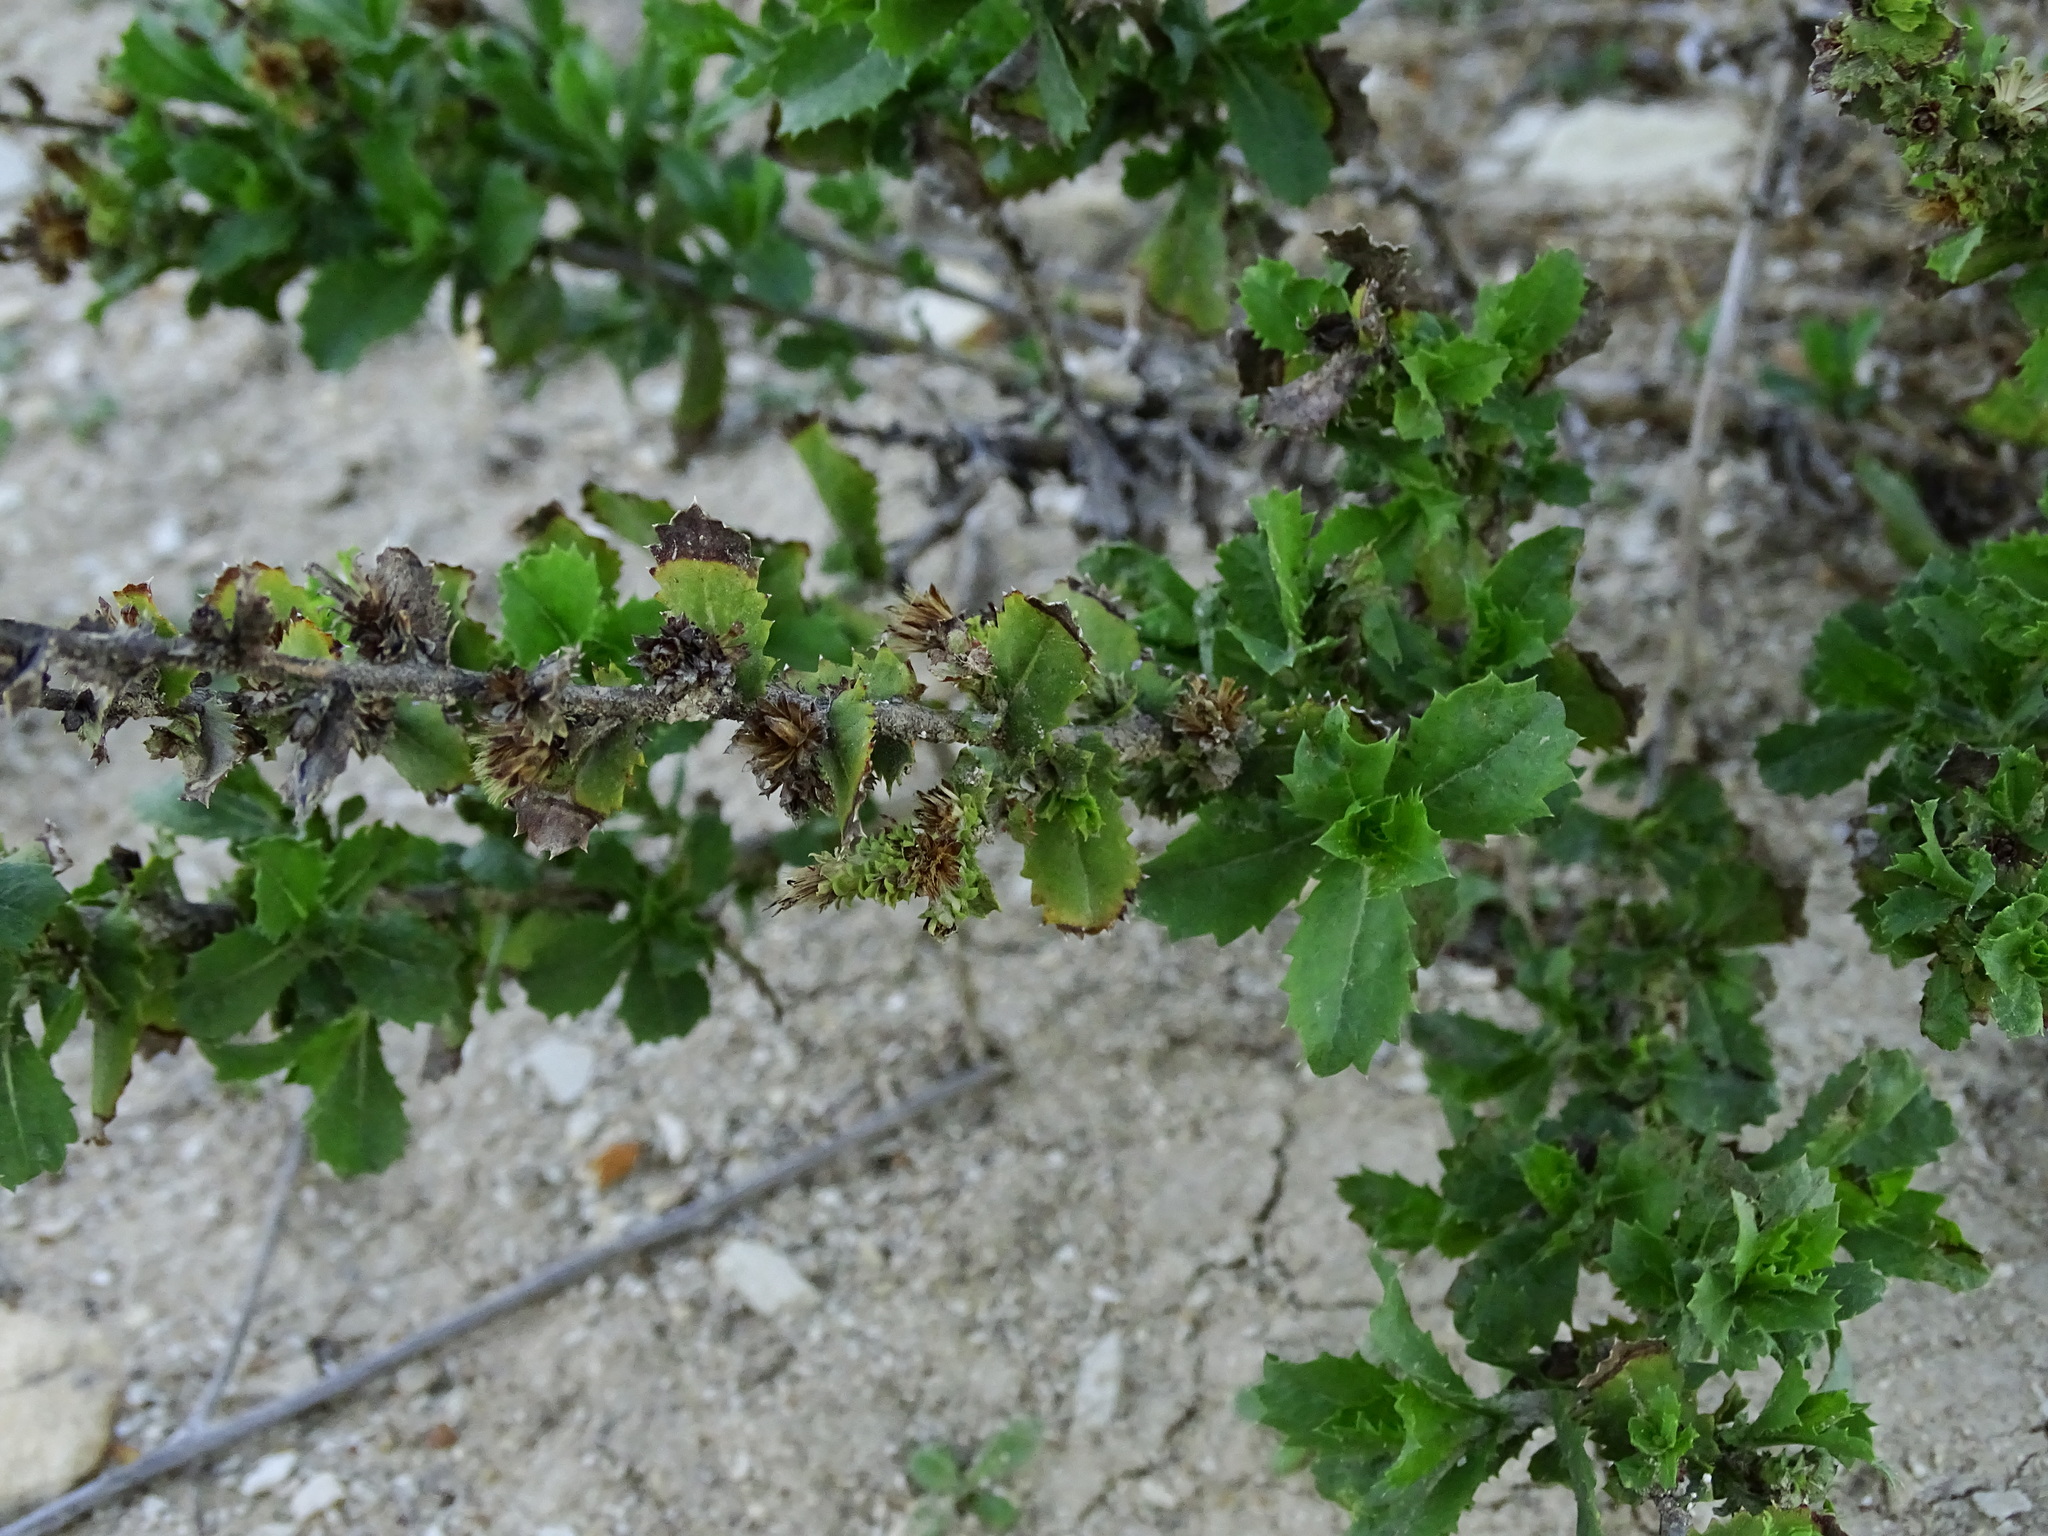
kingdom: Plantae
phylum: Tracheophyta
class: Magnoliopsida
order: Asterales
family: Asteraceae
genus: Hazardia
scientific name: Hazardia squarrosa
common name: Saw-tooth goldenbush
